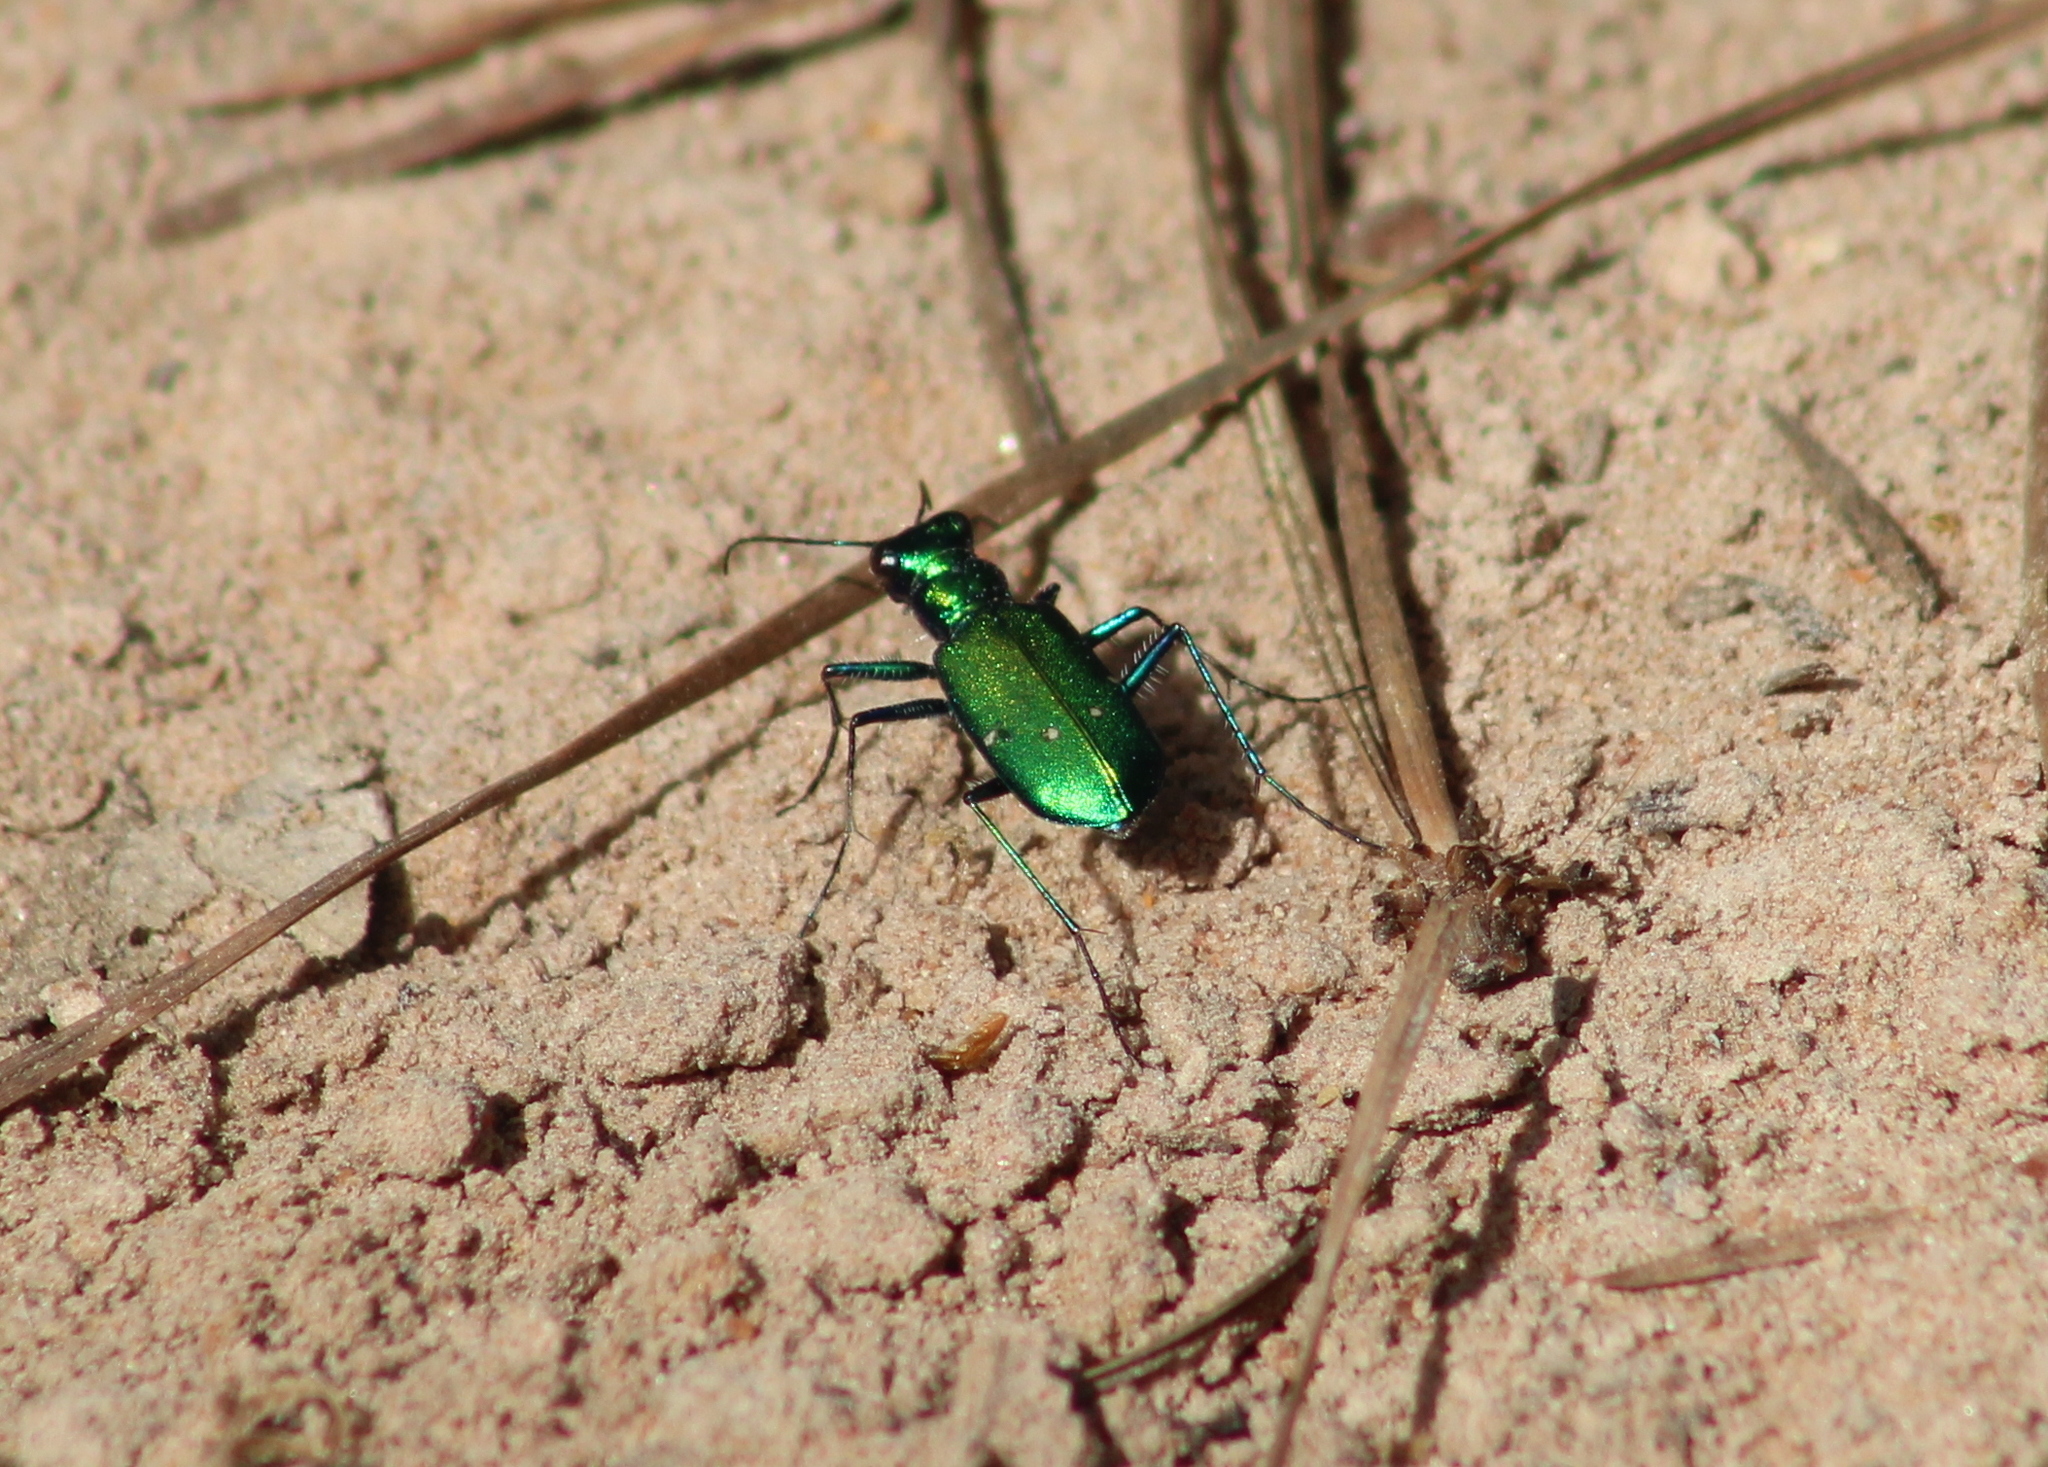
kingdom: Animalia
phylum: Arthropoda
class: Insecta
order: Coleoptera
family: Carabidae
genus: Cicindela
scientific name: Cicindela sexguttata
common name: Six-spotted tiger beetle
